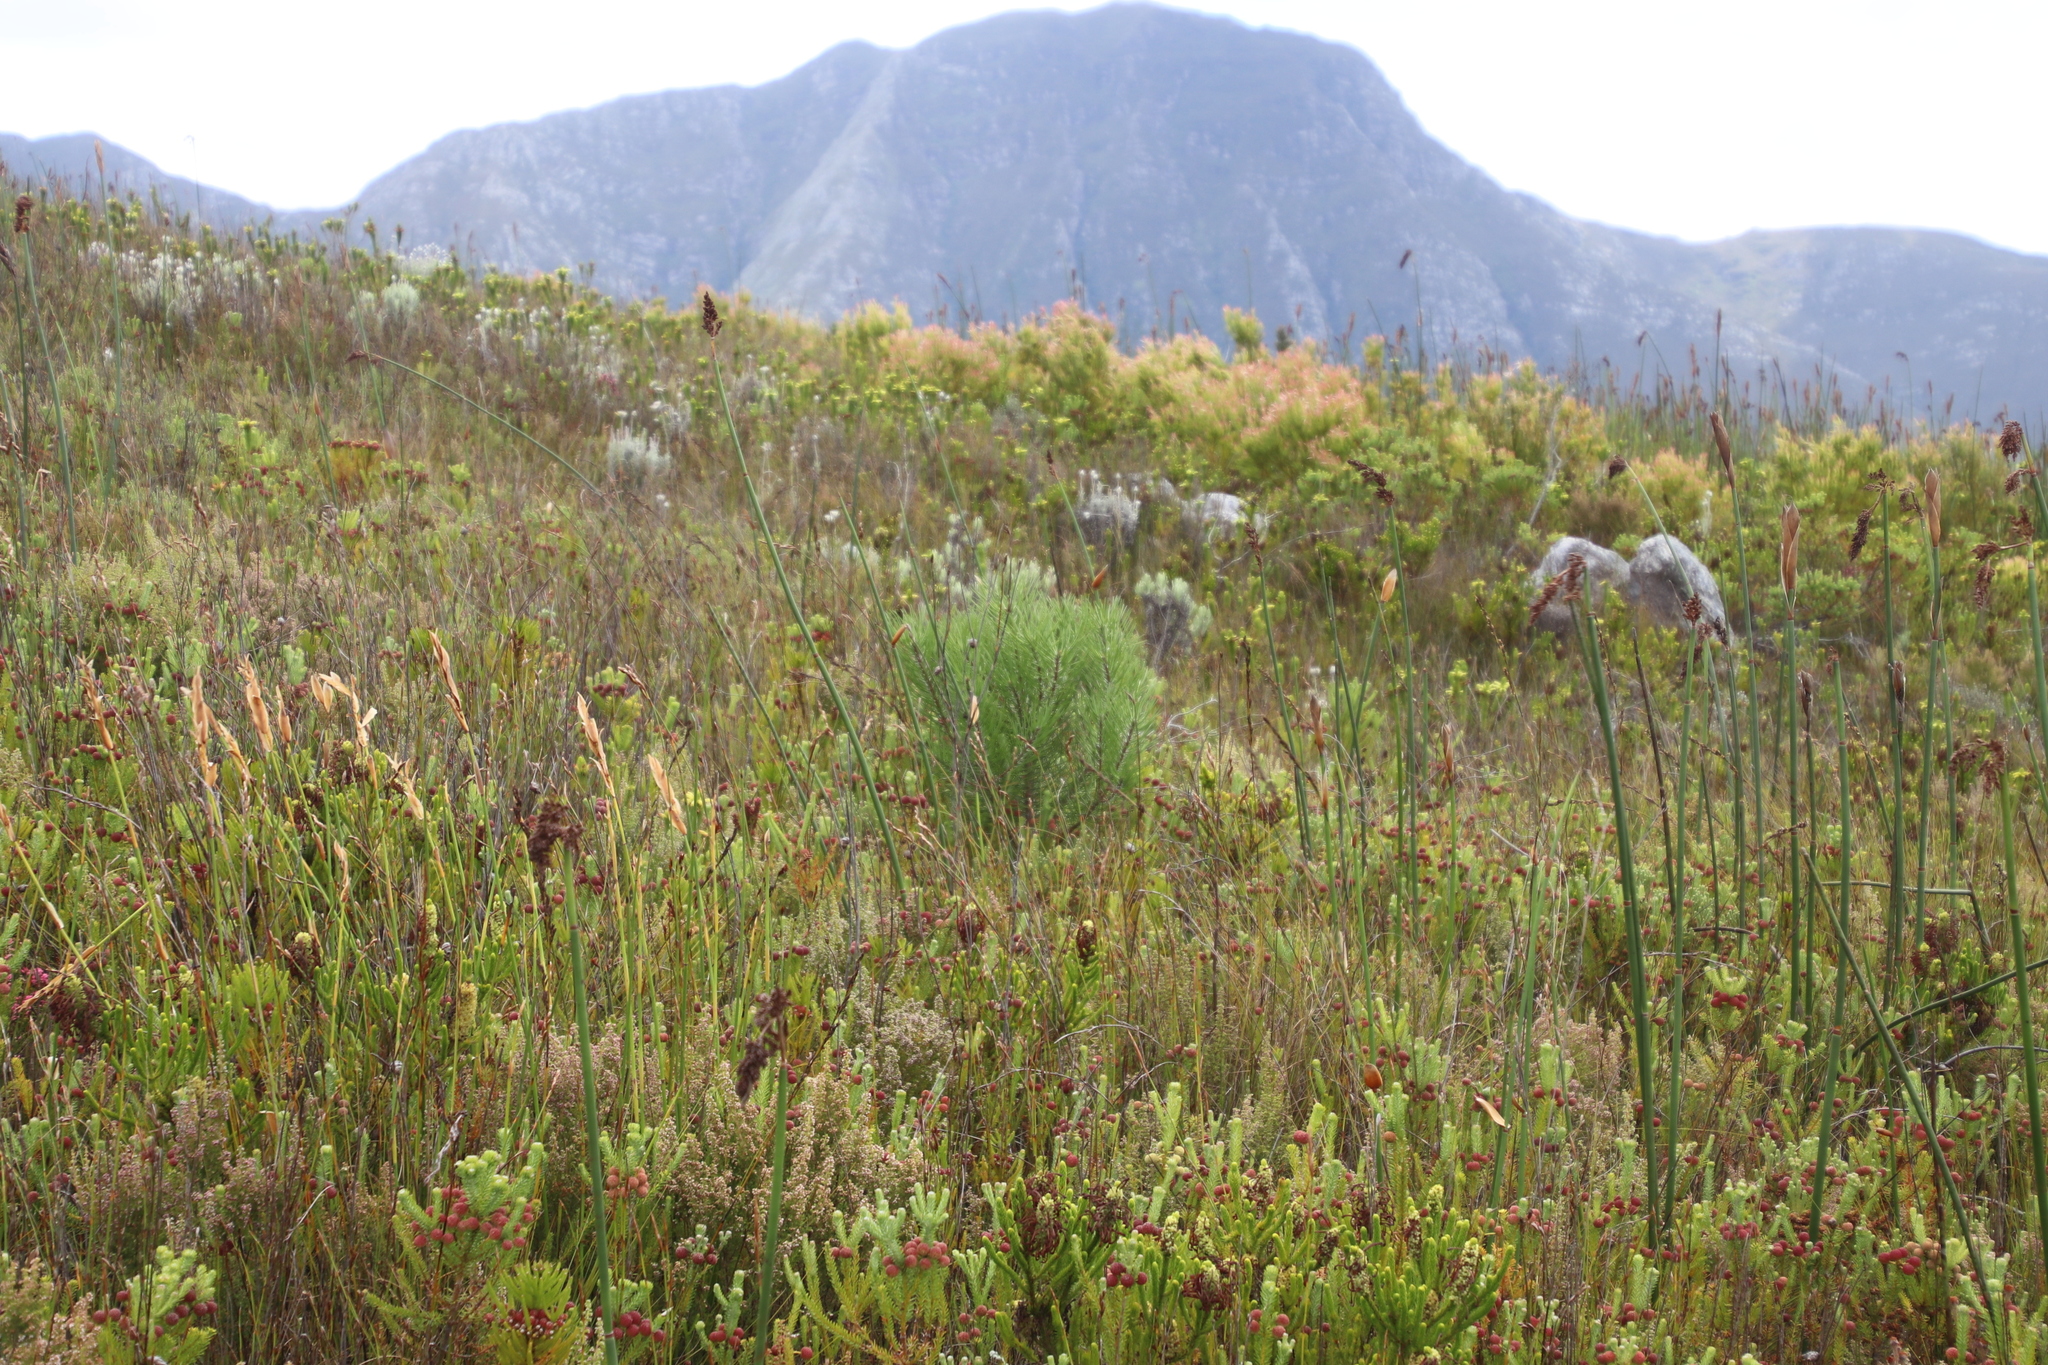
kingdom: Plantae
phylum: Tracheophyta
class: Pinopsida
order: Pinales
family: Pinaceae
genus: Pinus
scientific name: Pinus pinaster
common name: Maritime pine
